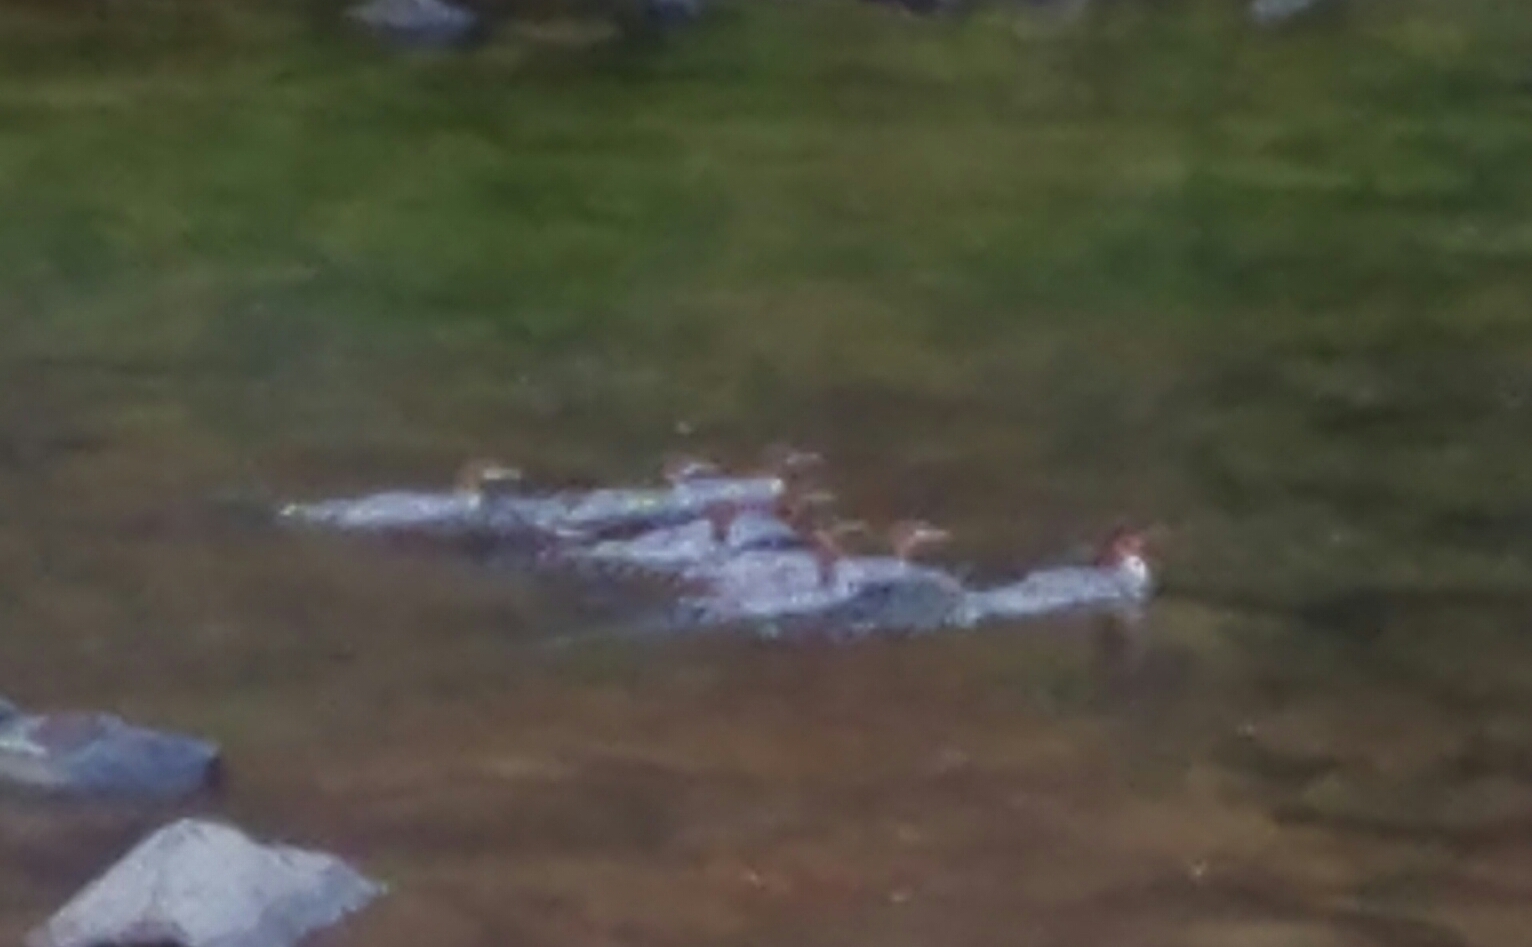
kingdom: Animalia
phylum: Chordata
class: Aves
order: Anseriformes
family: Anatidae
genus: Mergus
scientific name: Mergus merganser
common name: Common merganser
